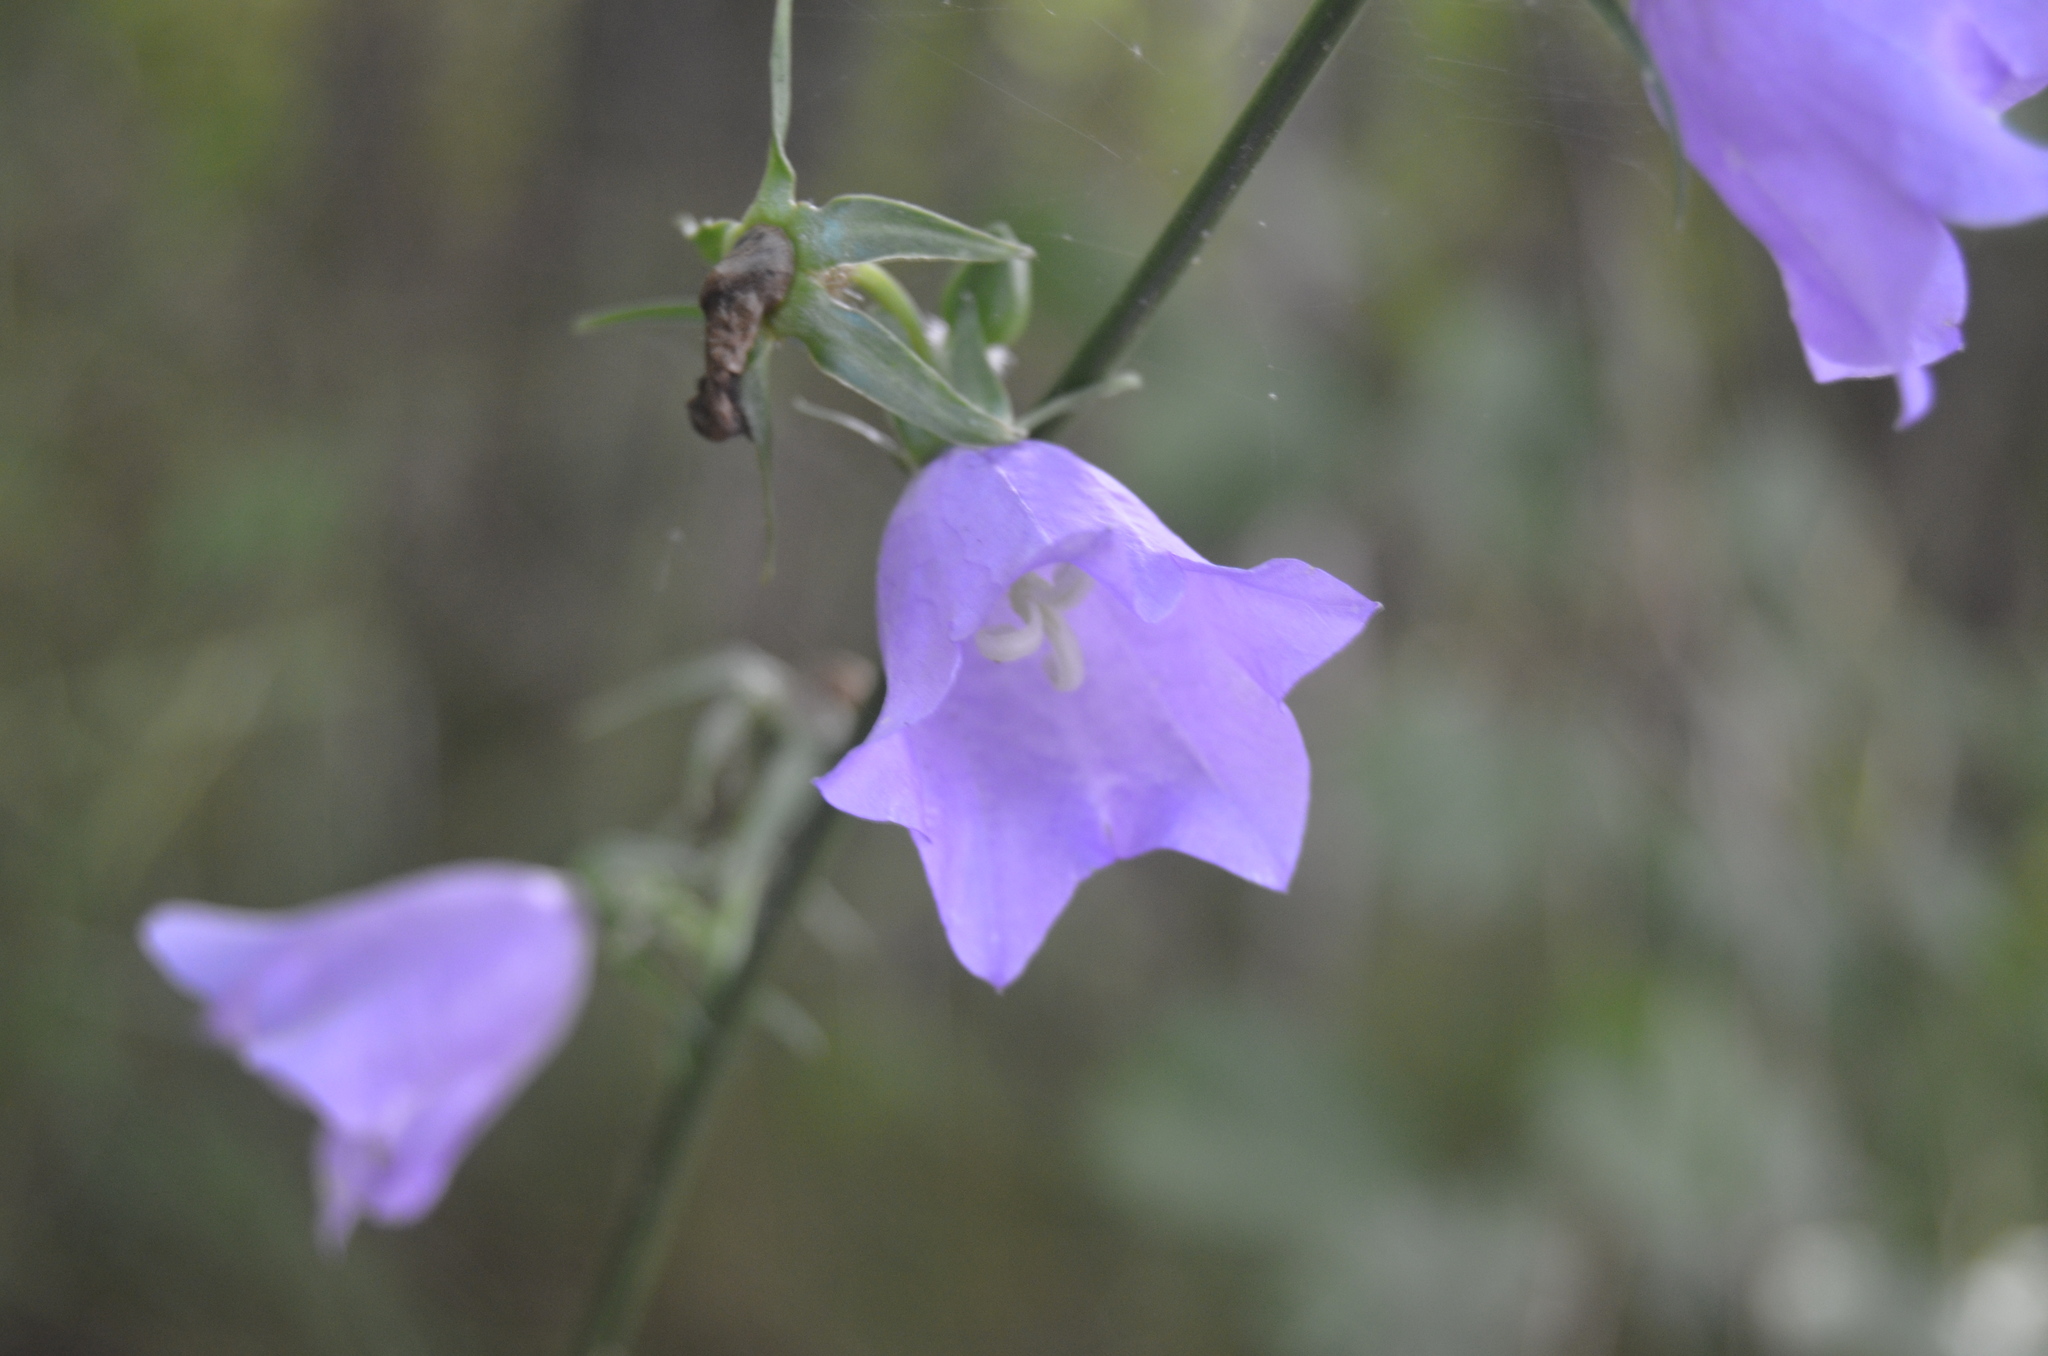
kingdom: Plantae
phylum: Tracheophyta
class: Magnoliopsida
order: Asterales
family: Campanulaceae
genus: Campanula
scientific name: Campanula persicifolia
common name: Peach-leaved bellflower
